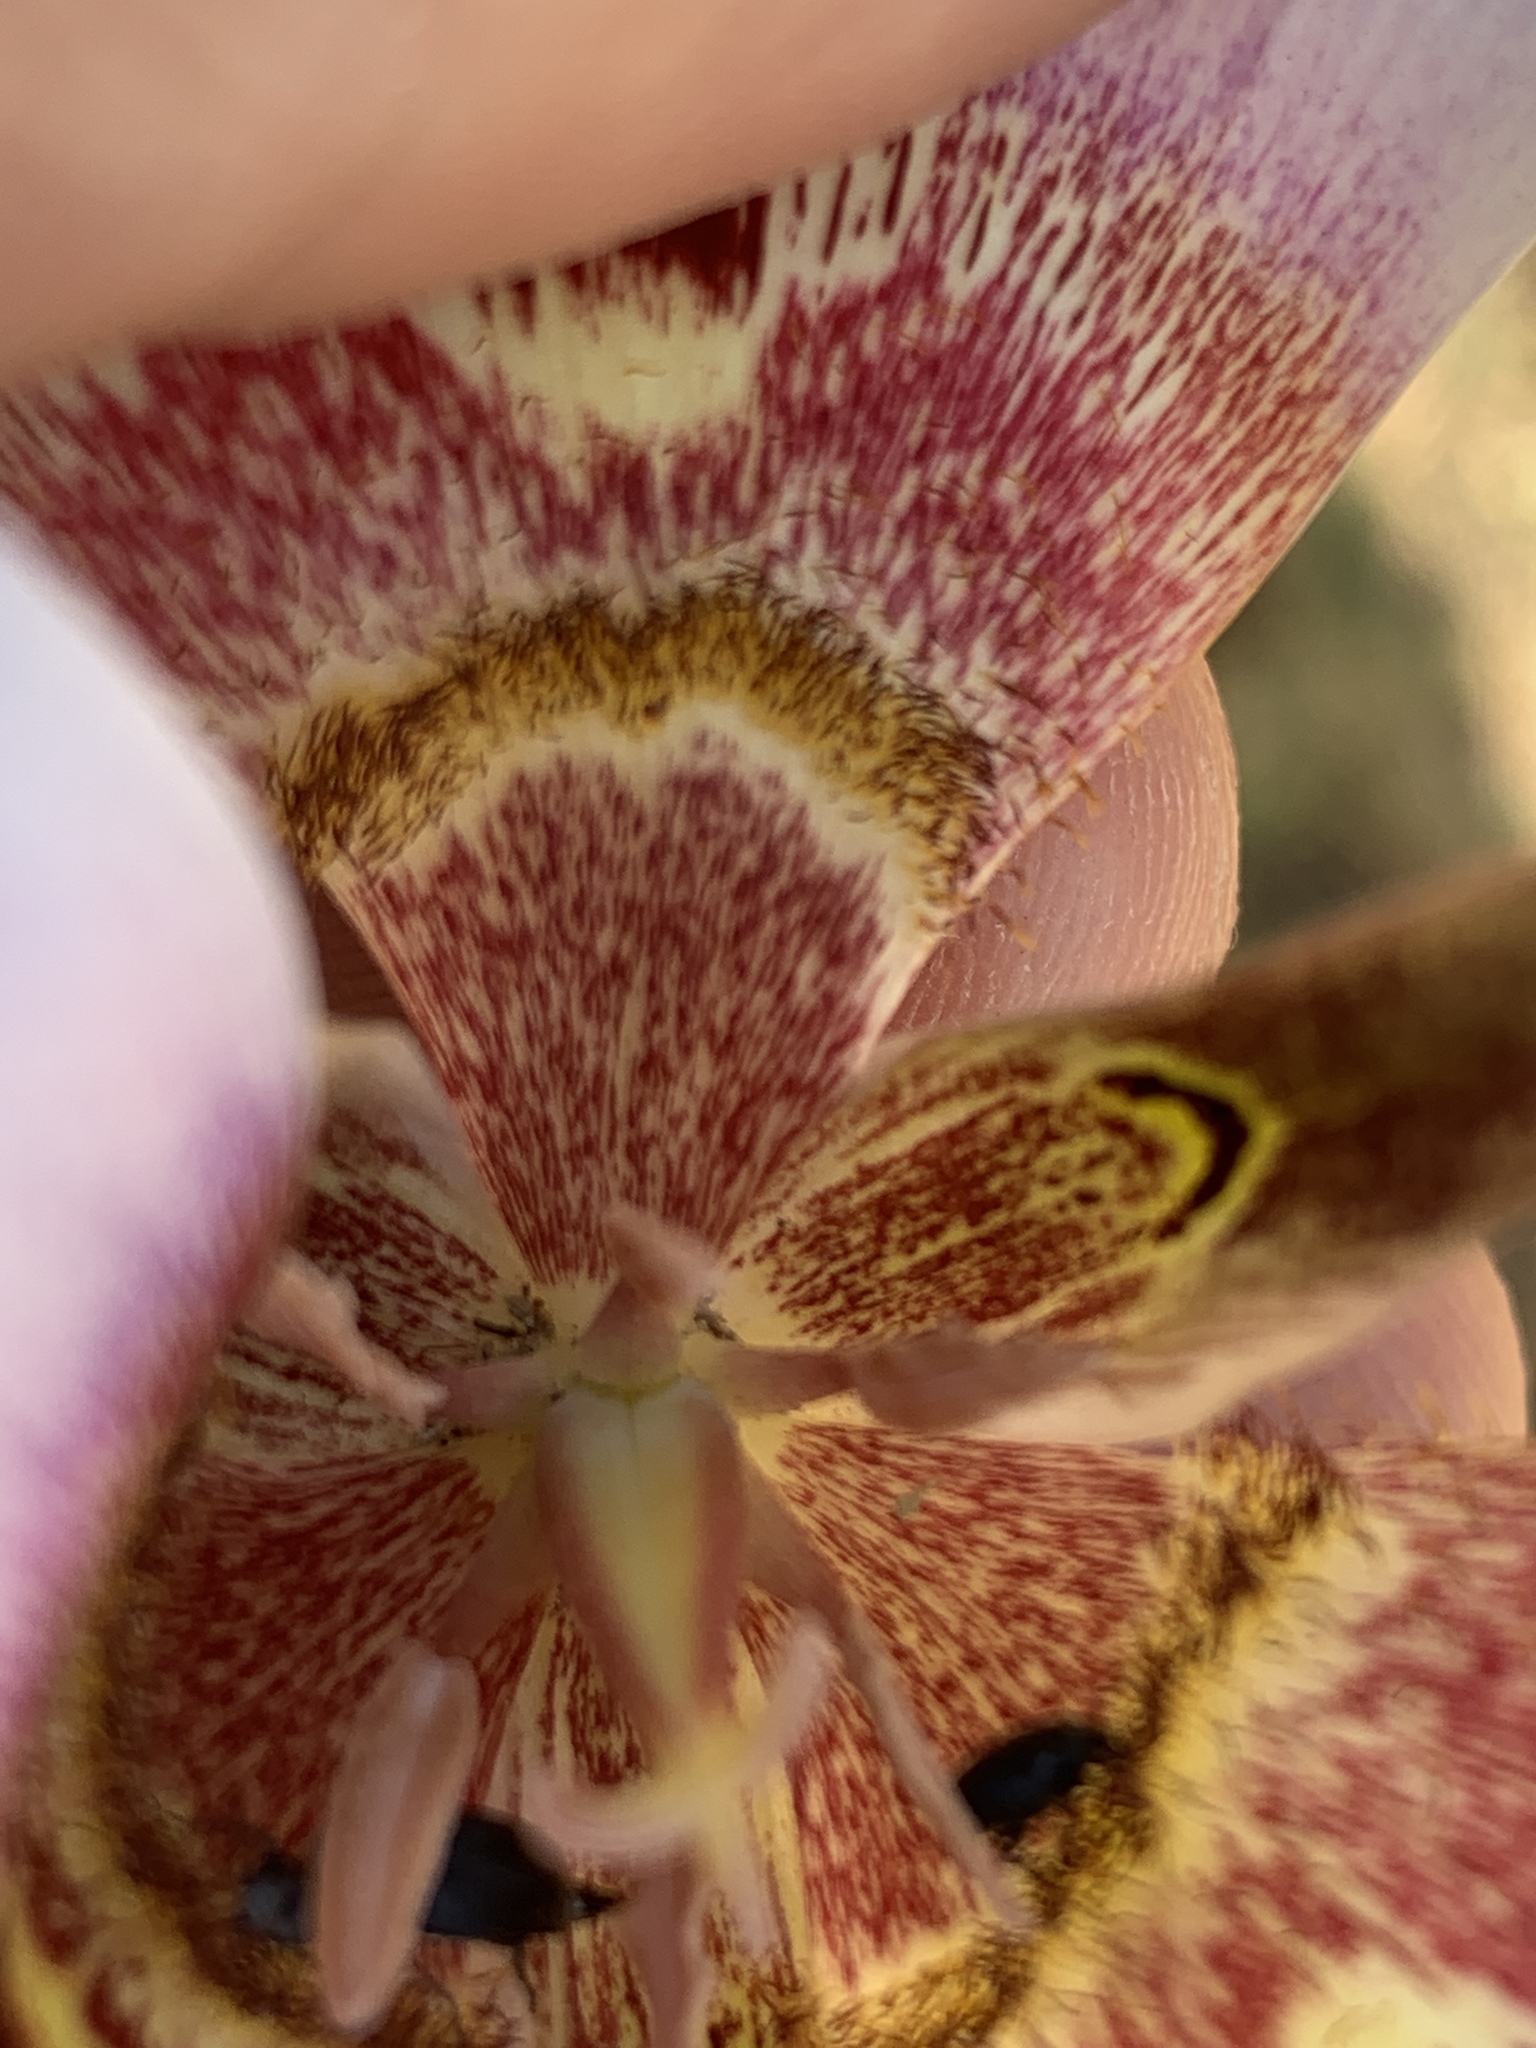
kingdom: Plantae
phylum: Tracheophyta
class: Liliopsida
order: Liliales
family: Liliaceae
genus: Calochortus
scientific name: Calochortus vestae
